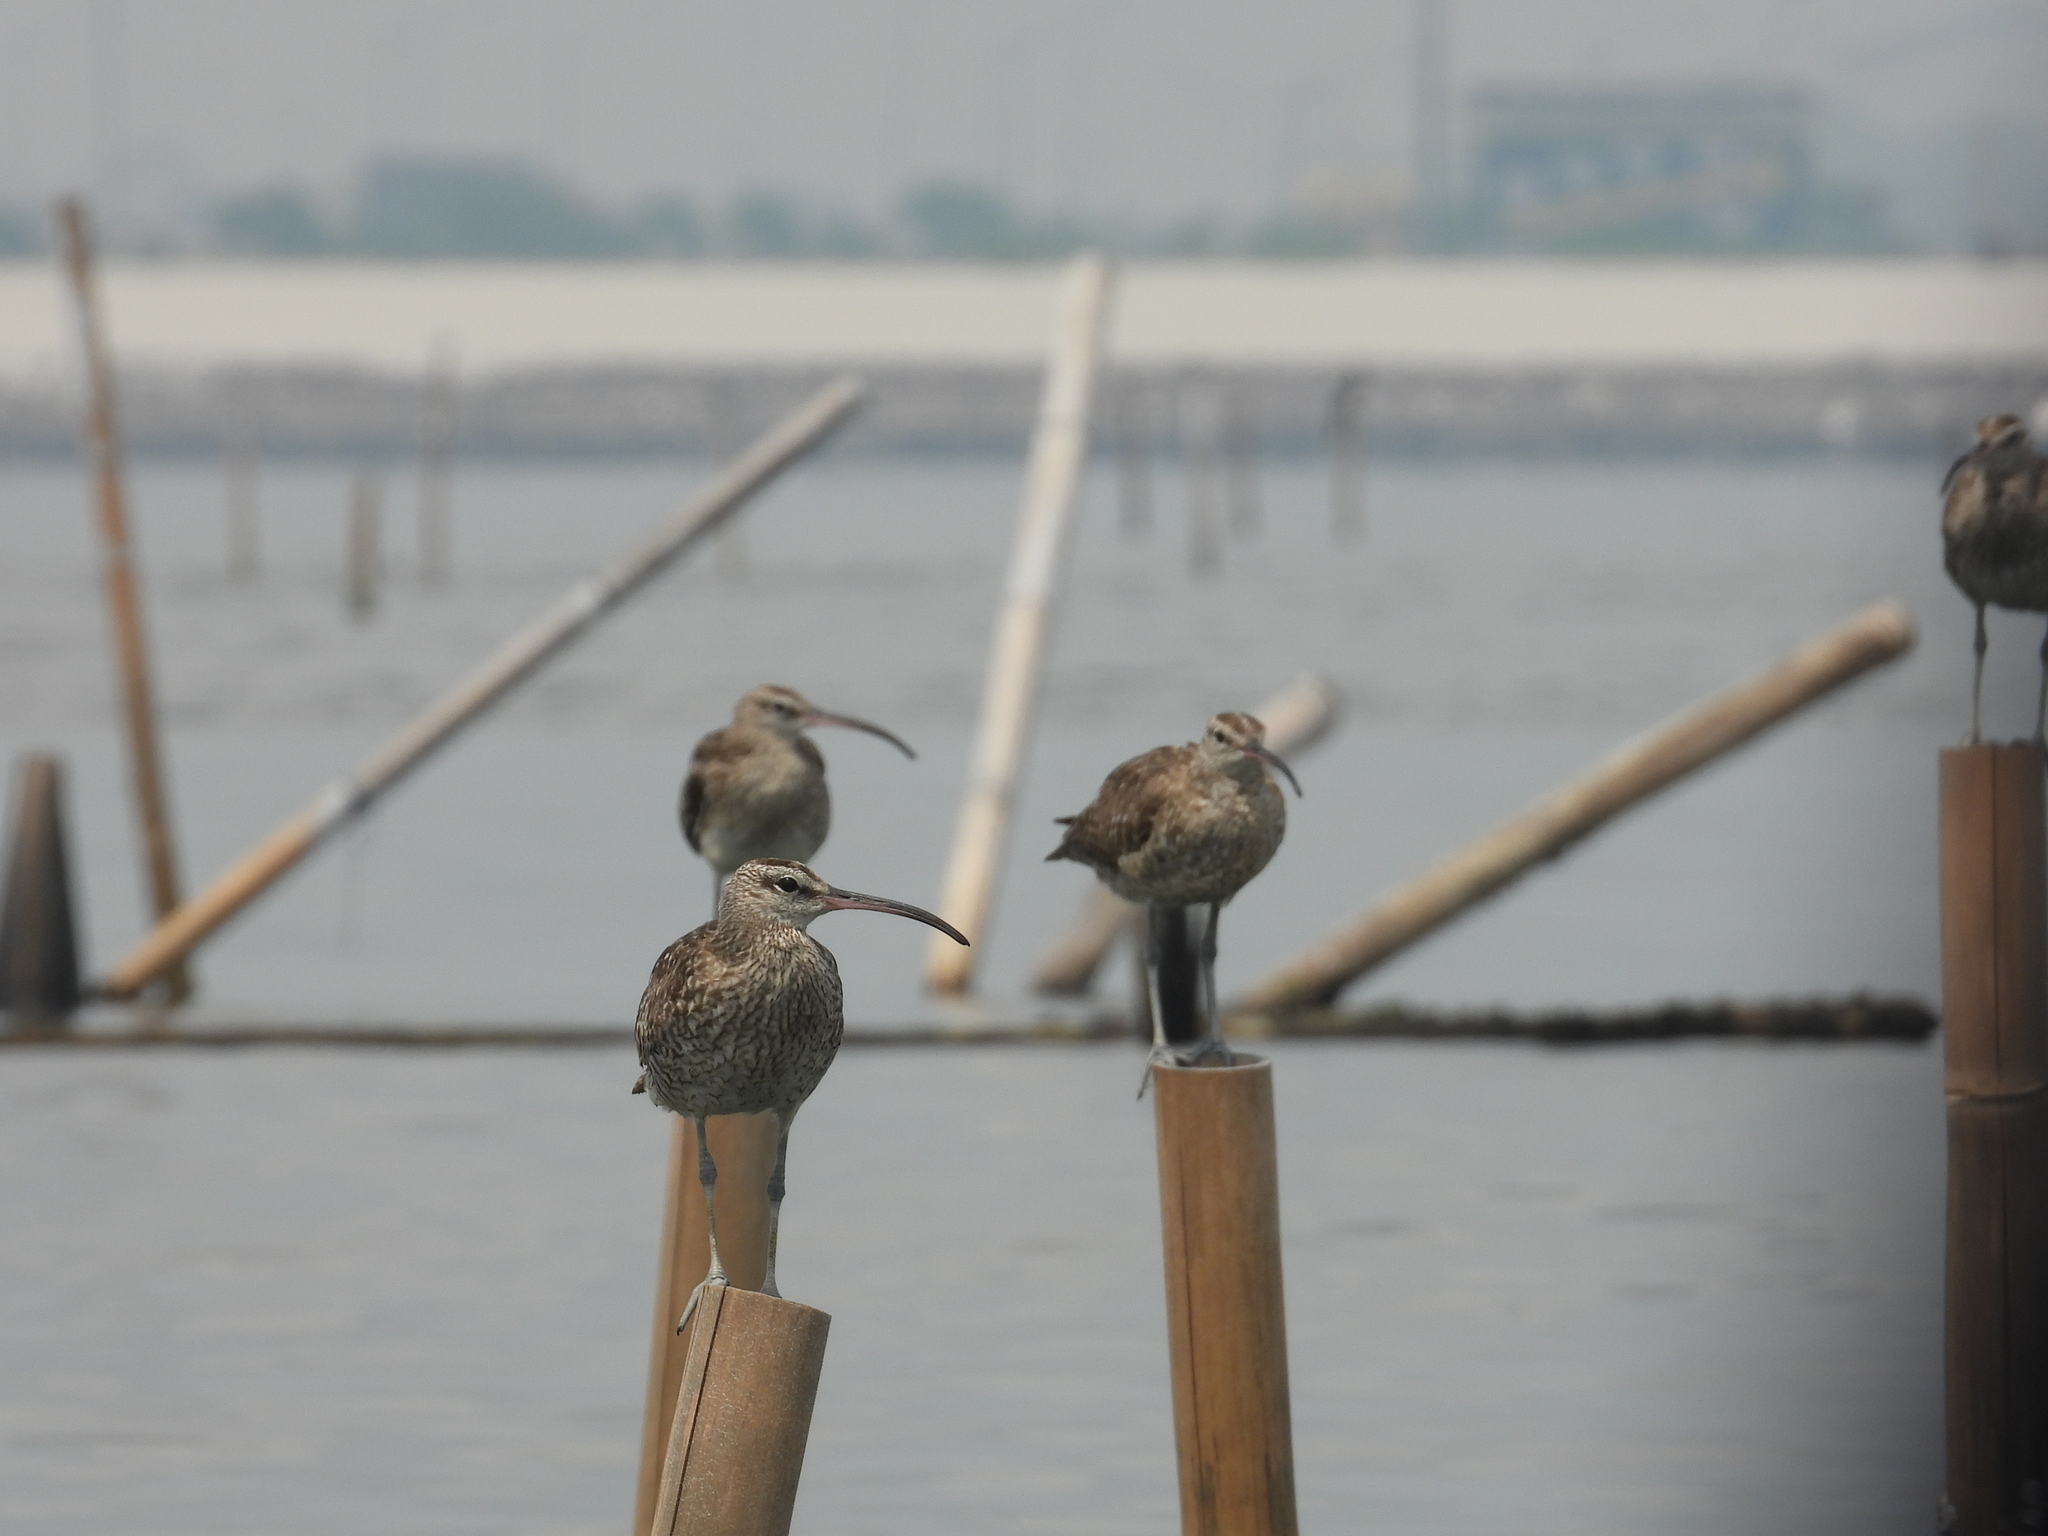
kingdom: Animalia
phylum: Chordata
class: Aves
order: Charadriiformes
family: Scolopacidae
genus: Numenius
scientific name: Numenius phaeopus
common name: Whimbrel
